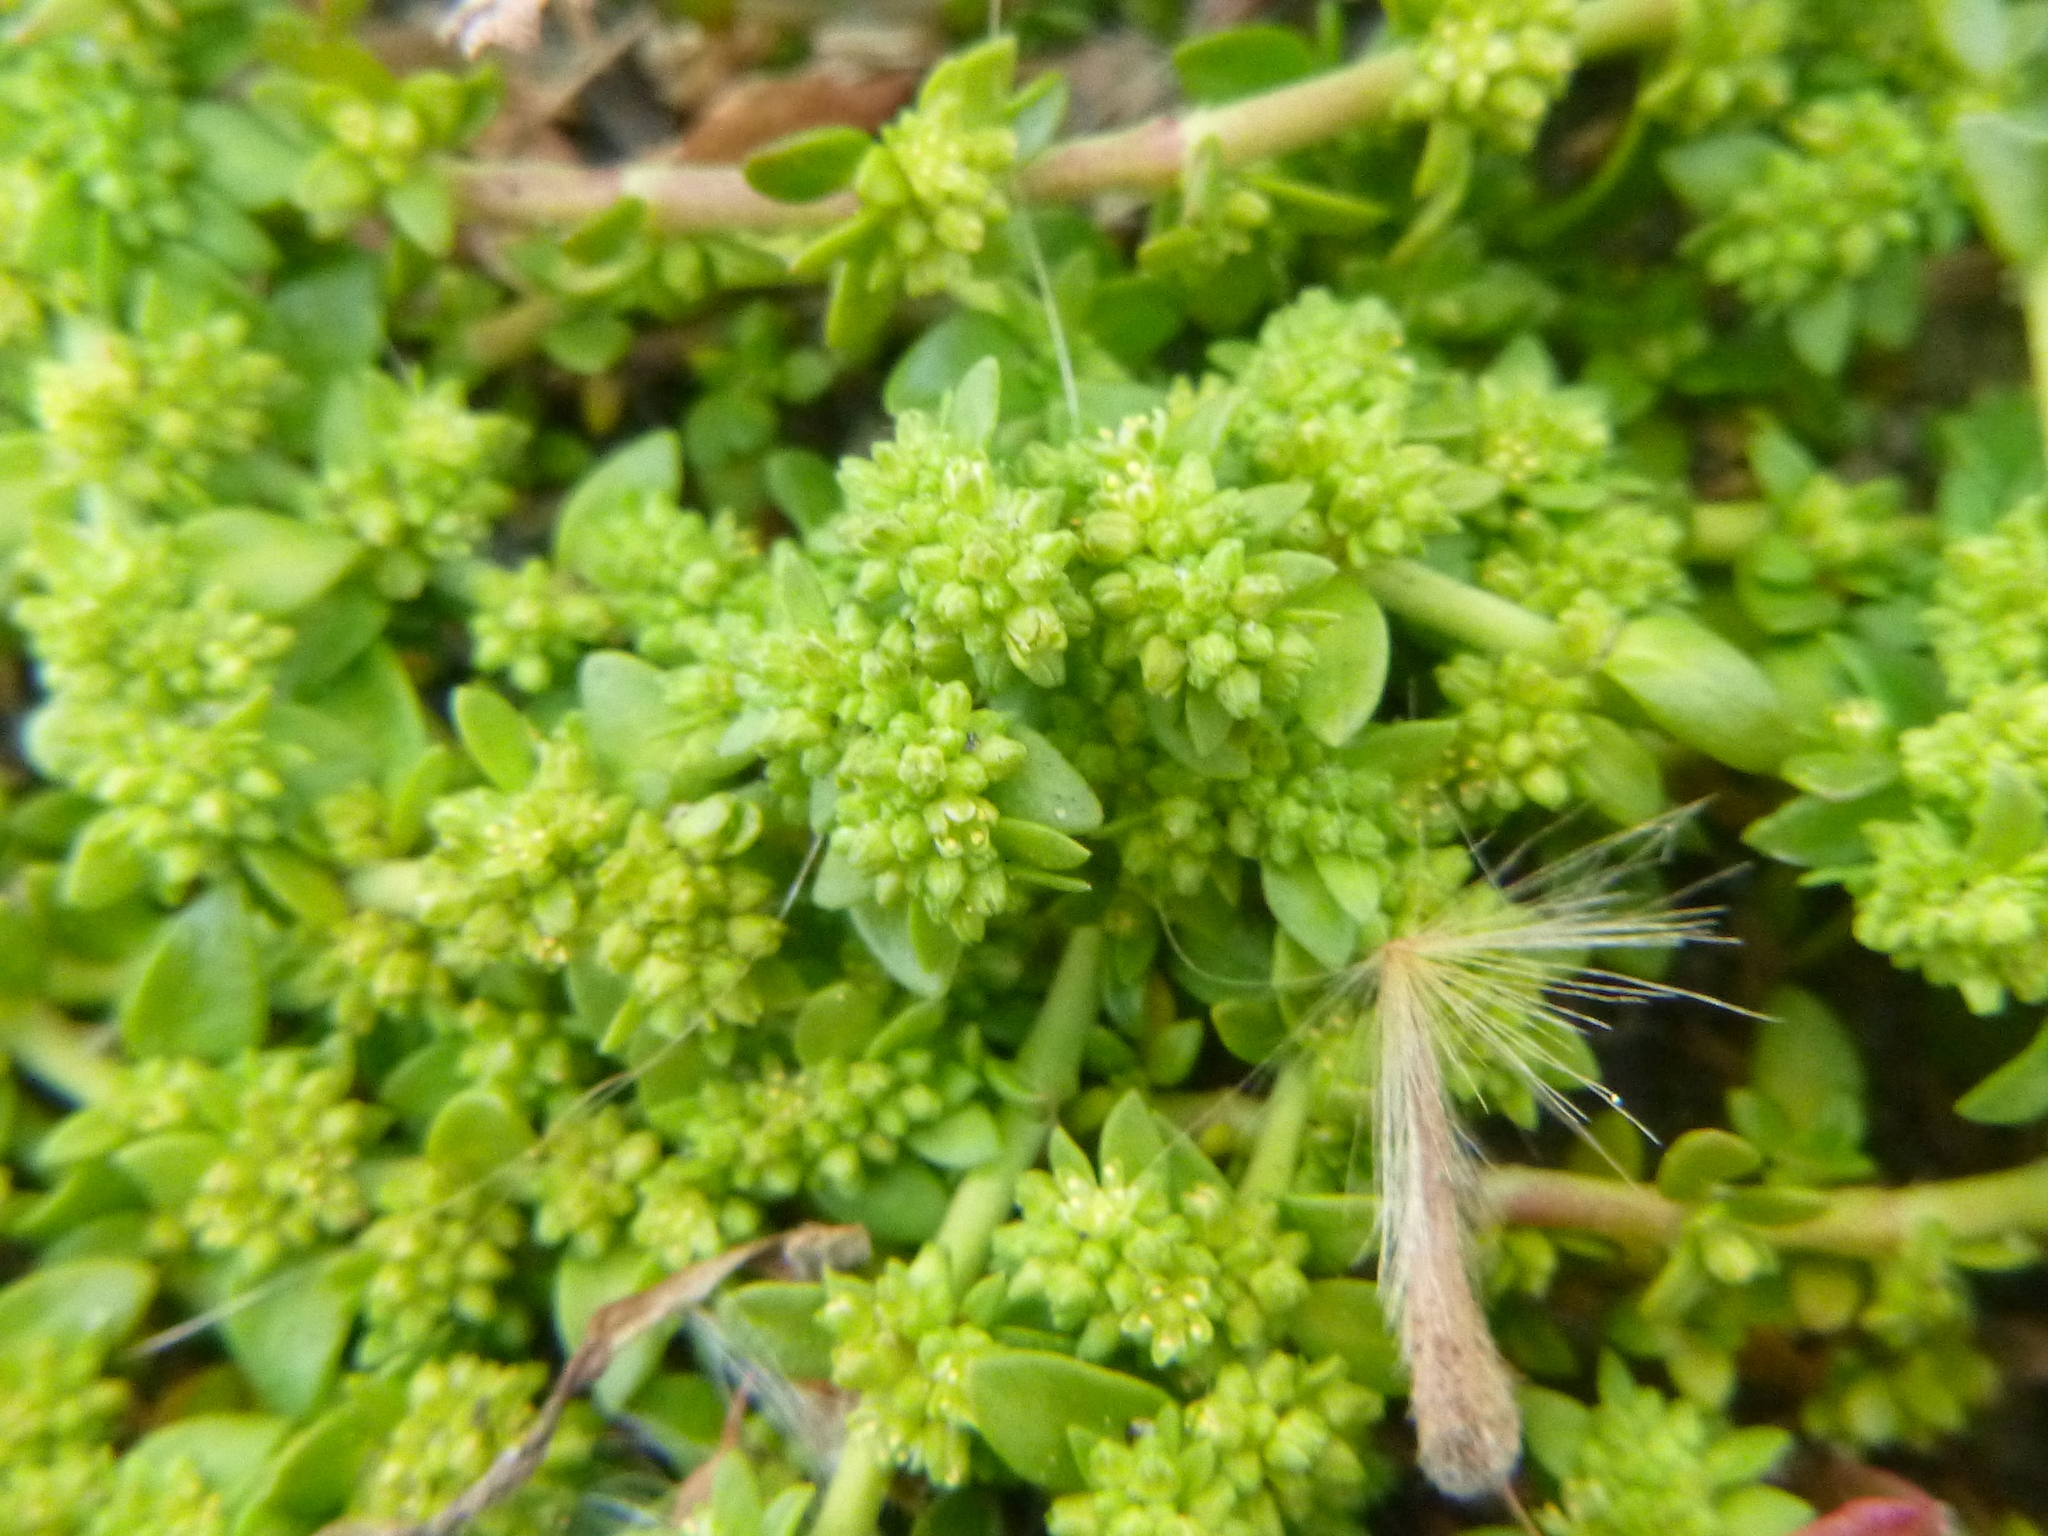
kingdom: Plantae
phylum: Tracheophyta
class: Magnoliopsida
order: Caryophyllales
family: Caryophyllaceae
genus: Herniaria
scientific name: Herniaria glabra
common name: Smooth rupturewort
